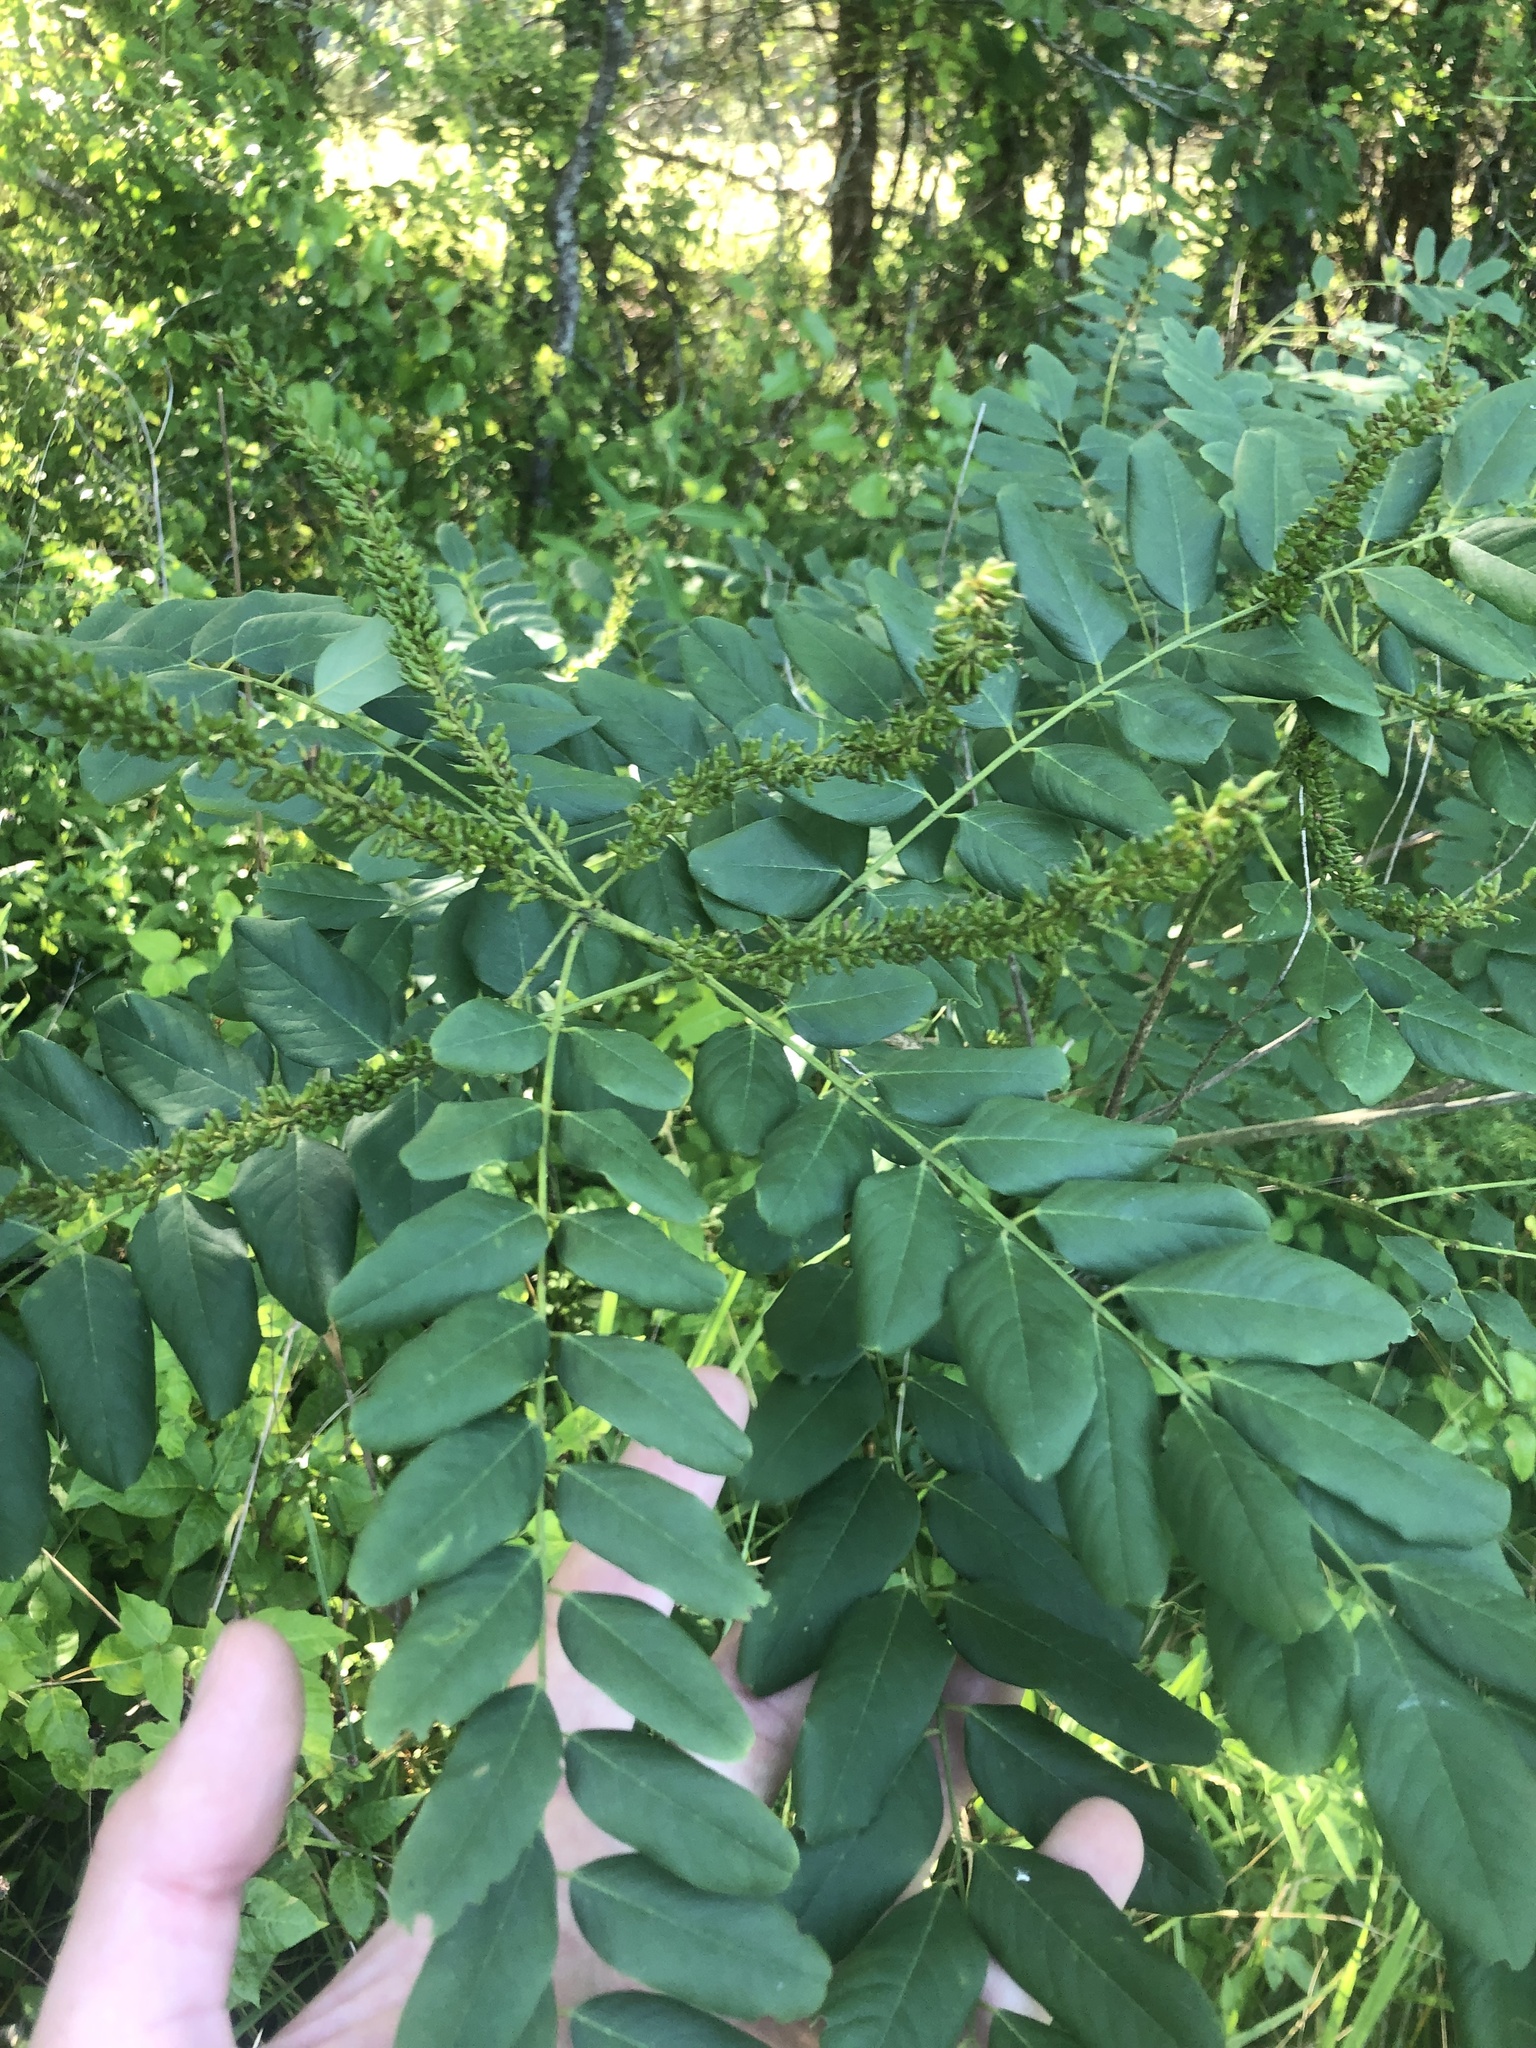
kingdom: Plantae
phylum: Tracheophyta
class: Magnoliopsida
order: Fabales
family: Fabaceae
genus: Amorpha
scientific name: Amorpha fruticosa
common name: False indigo
